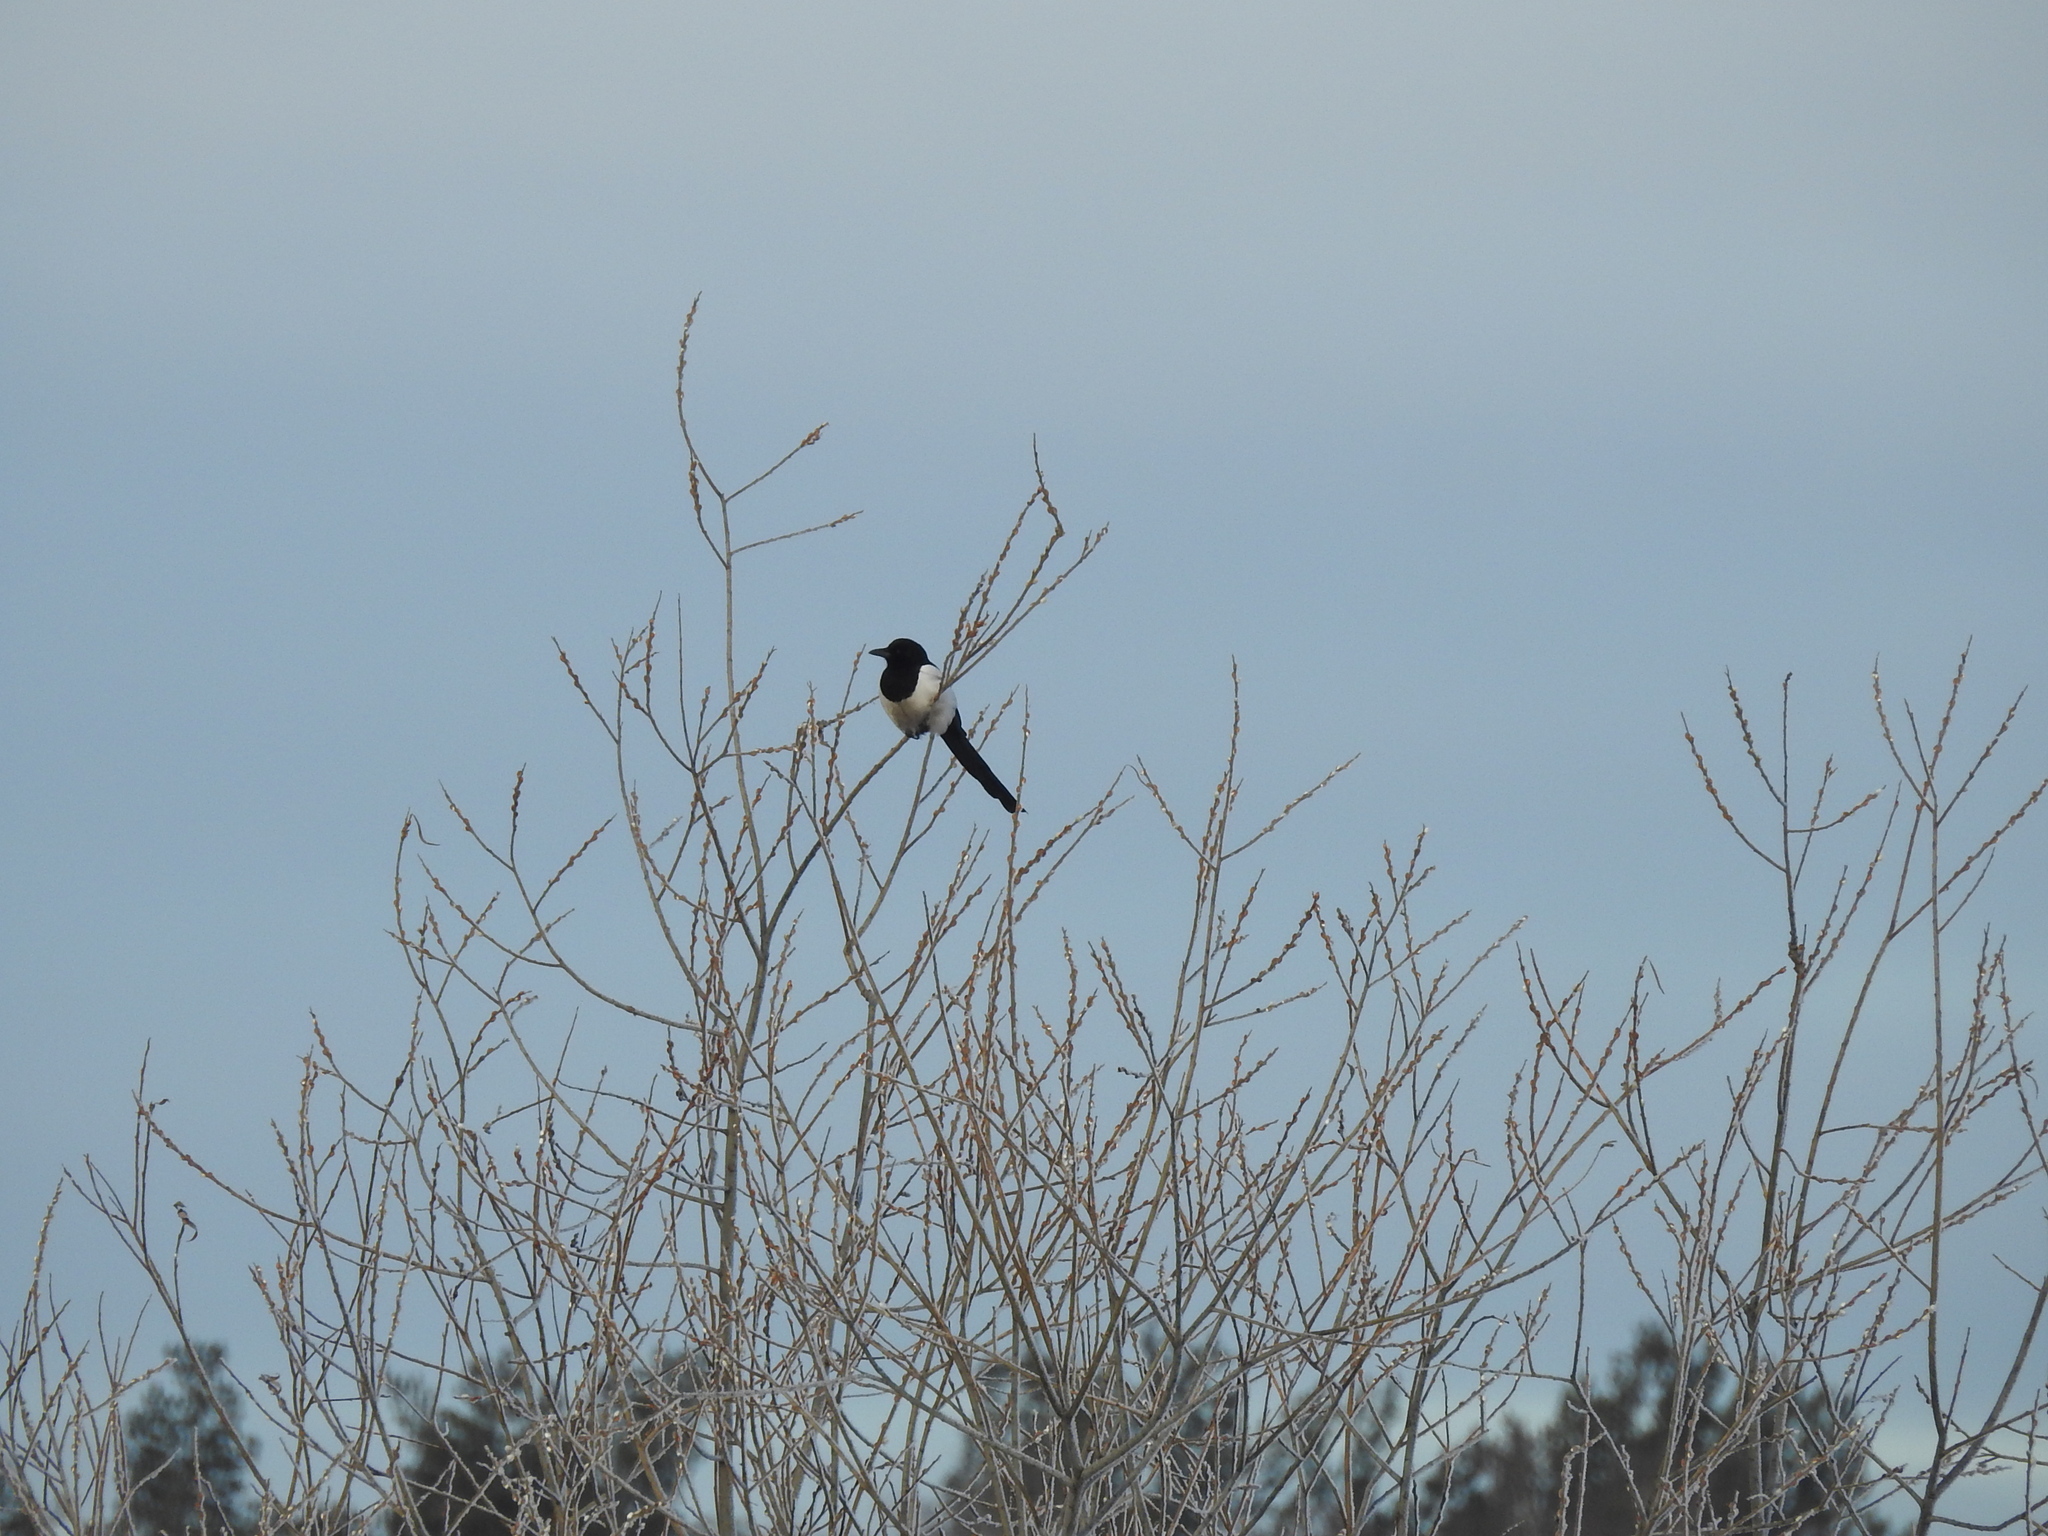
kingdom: Animalia
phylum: Chordata
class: Aves
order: Passeriformes
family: Corvidae
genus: Pica
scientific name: Pica pica
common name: Eurasian magpie
